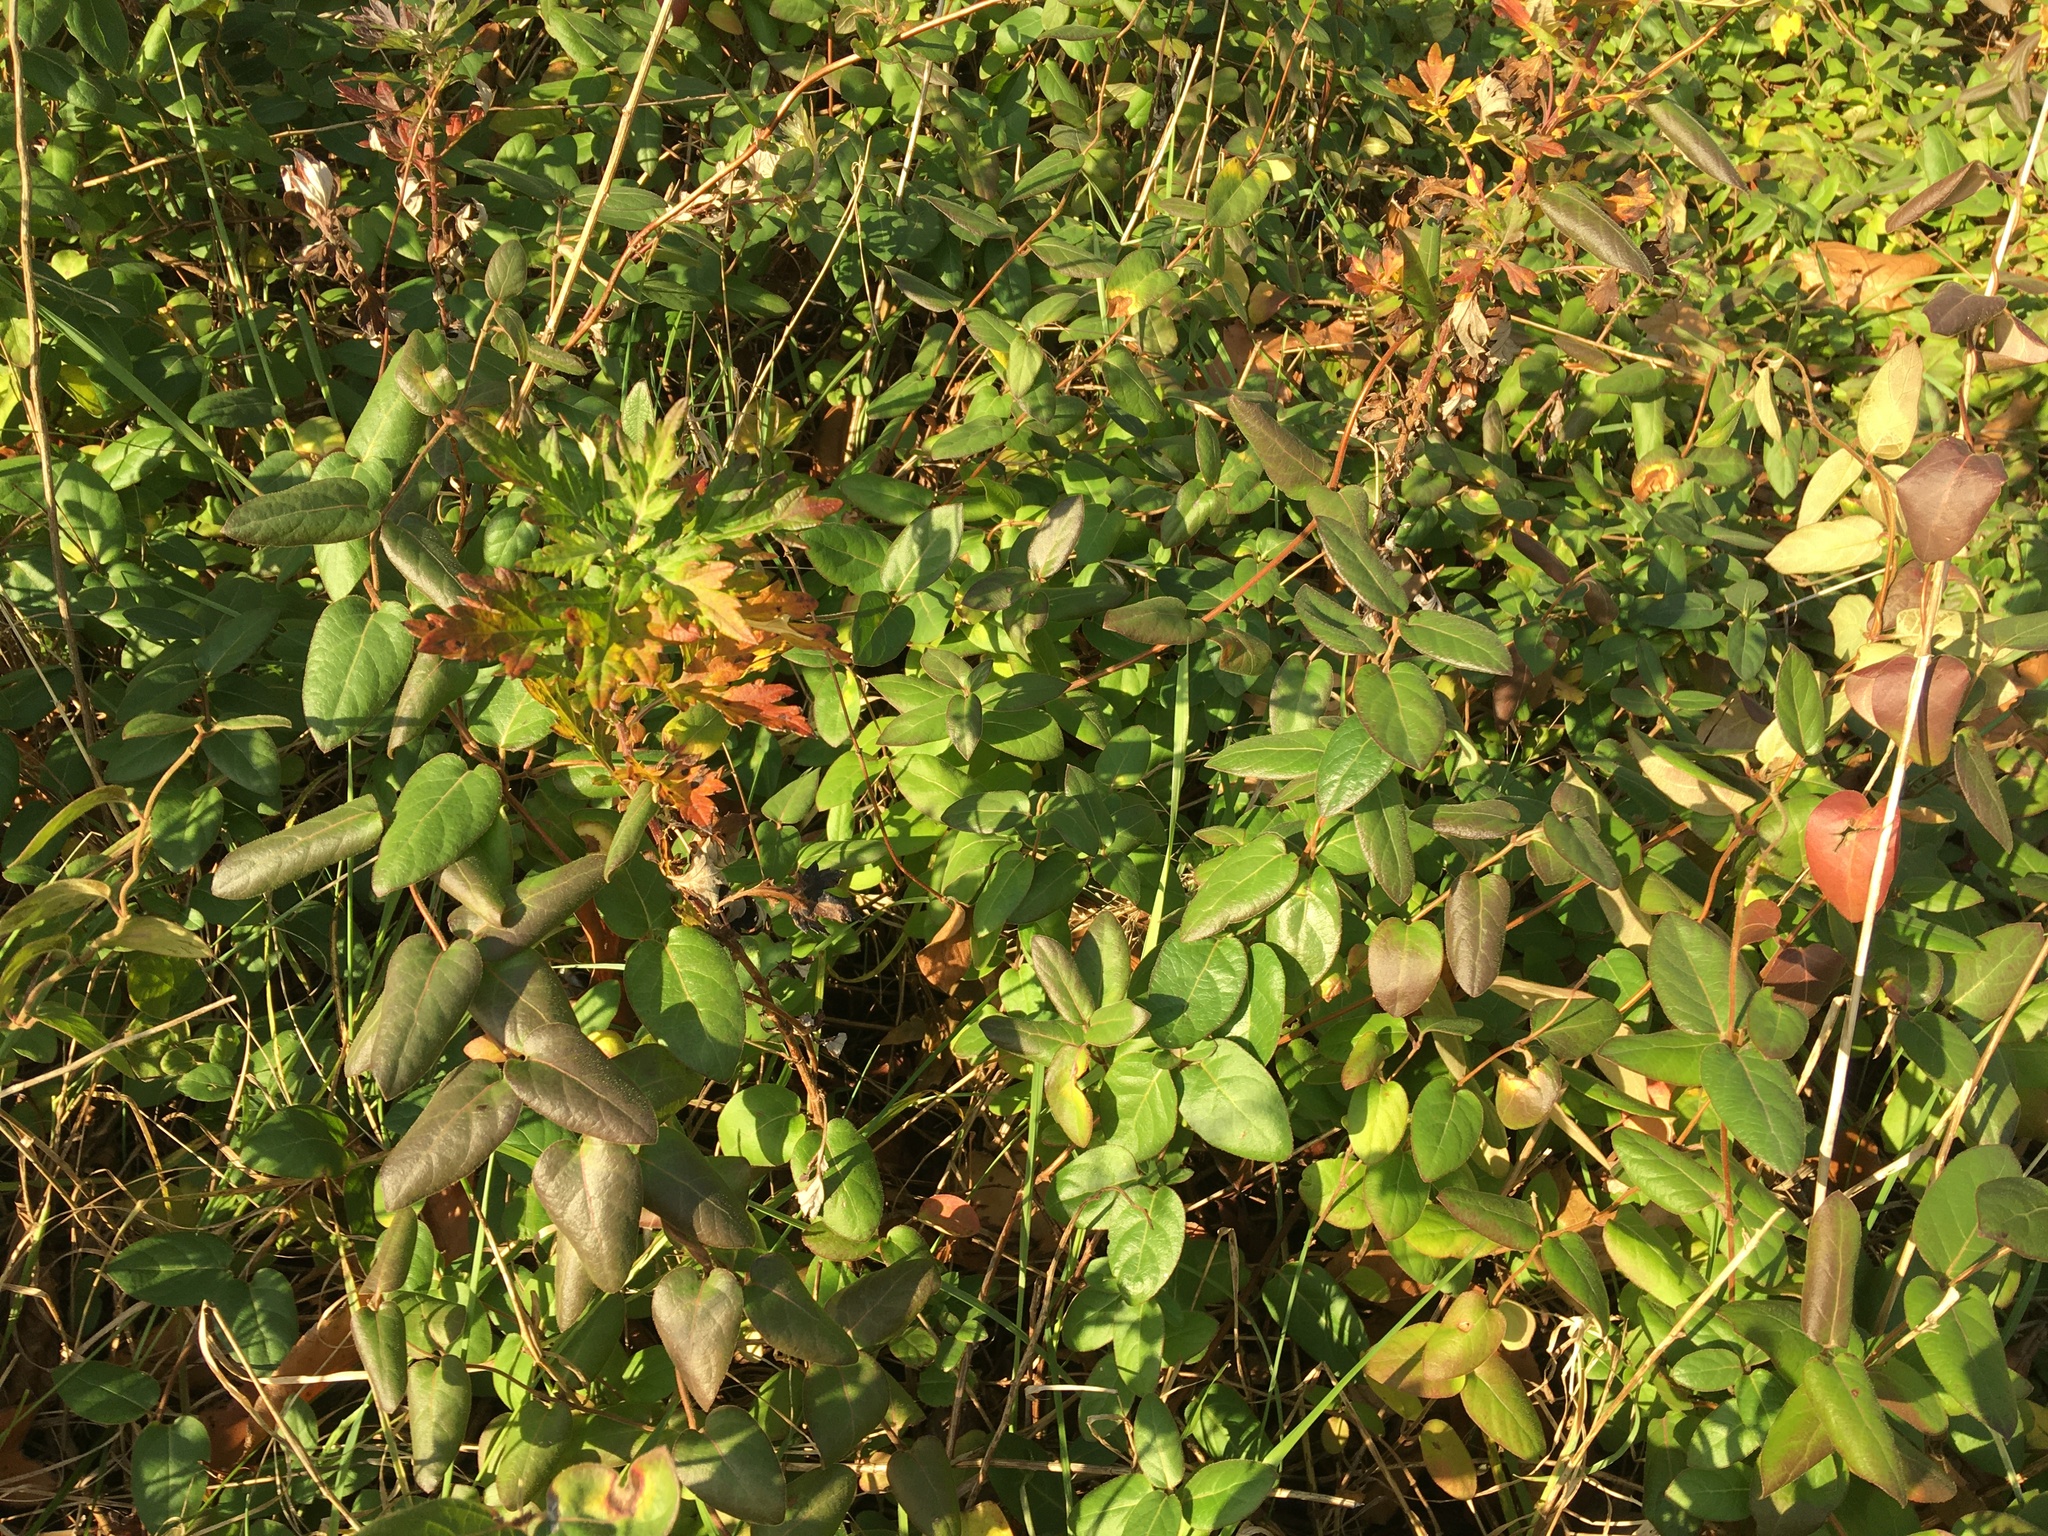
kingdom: Plantae
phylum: Tracheophyta
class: Magnoliopsida
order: Dipsacales
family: Caprifoliaceae
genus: Lonicera
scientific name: Lonicera japonica
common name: Japanese honeysuckle
